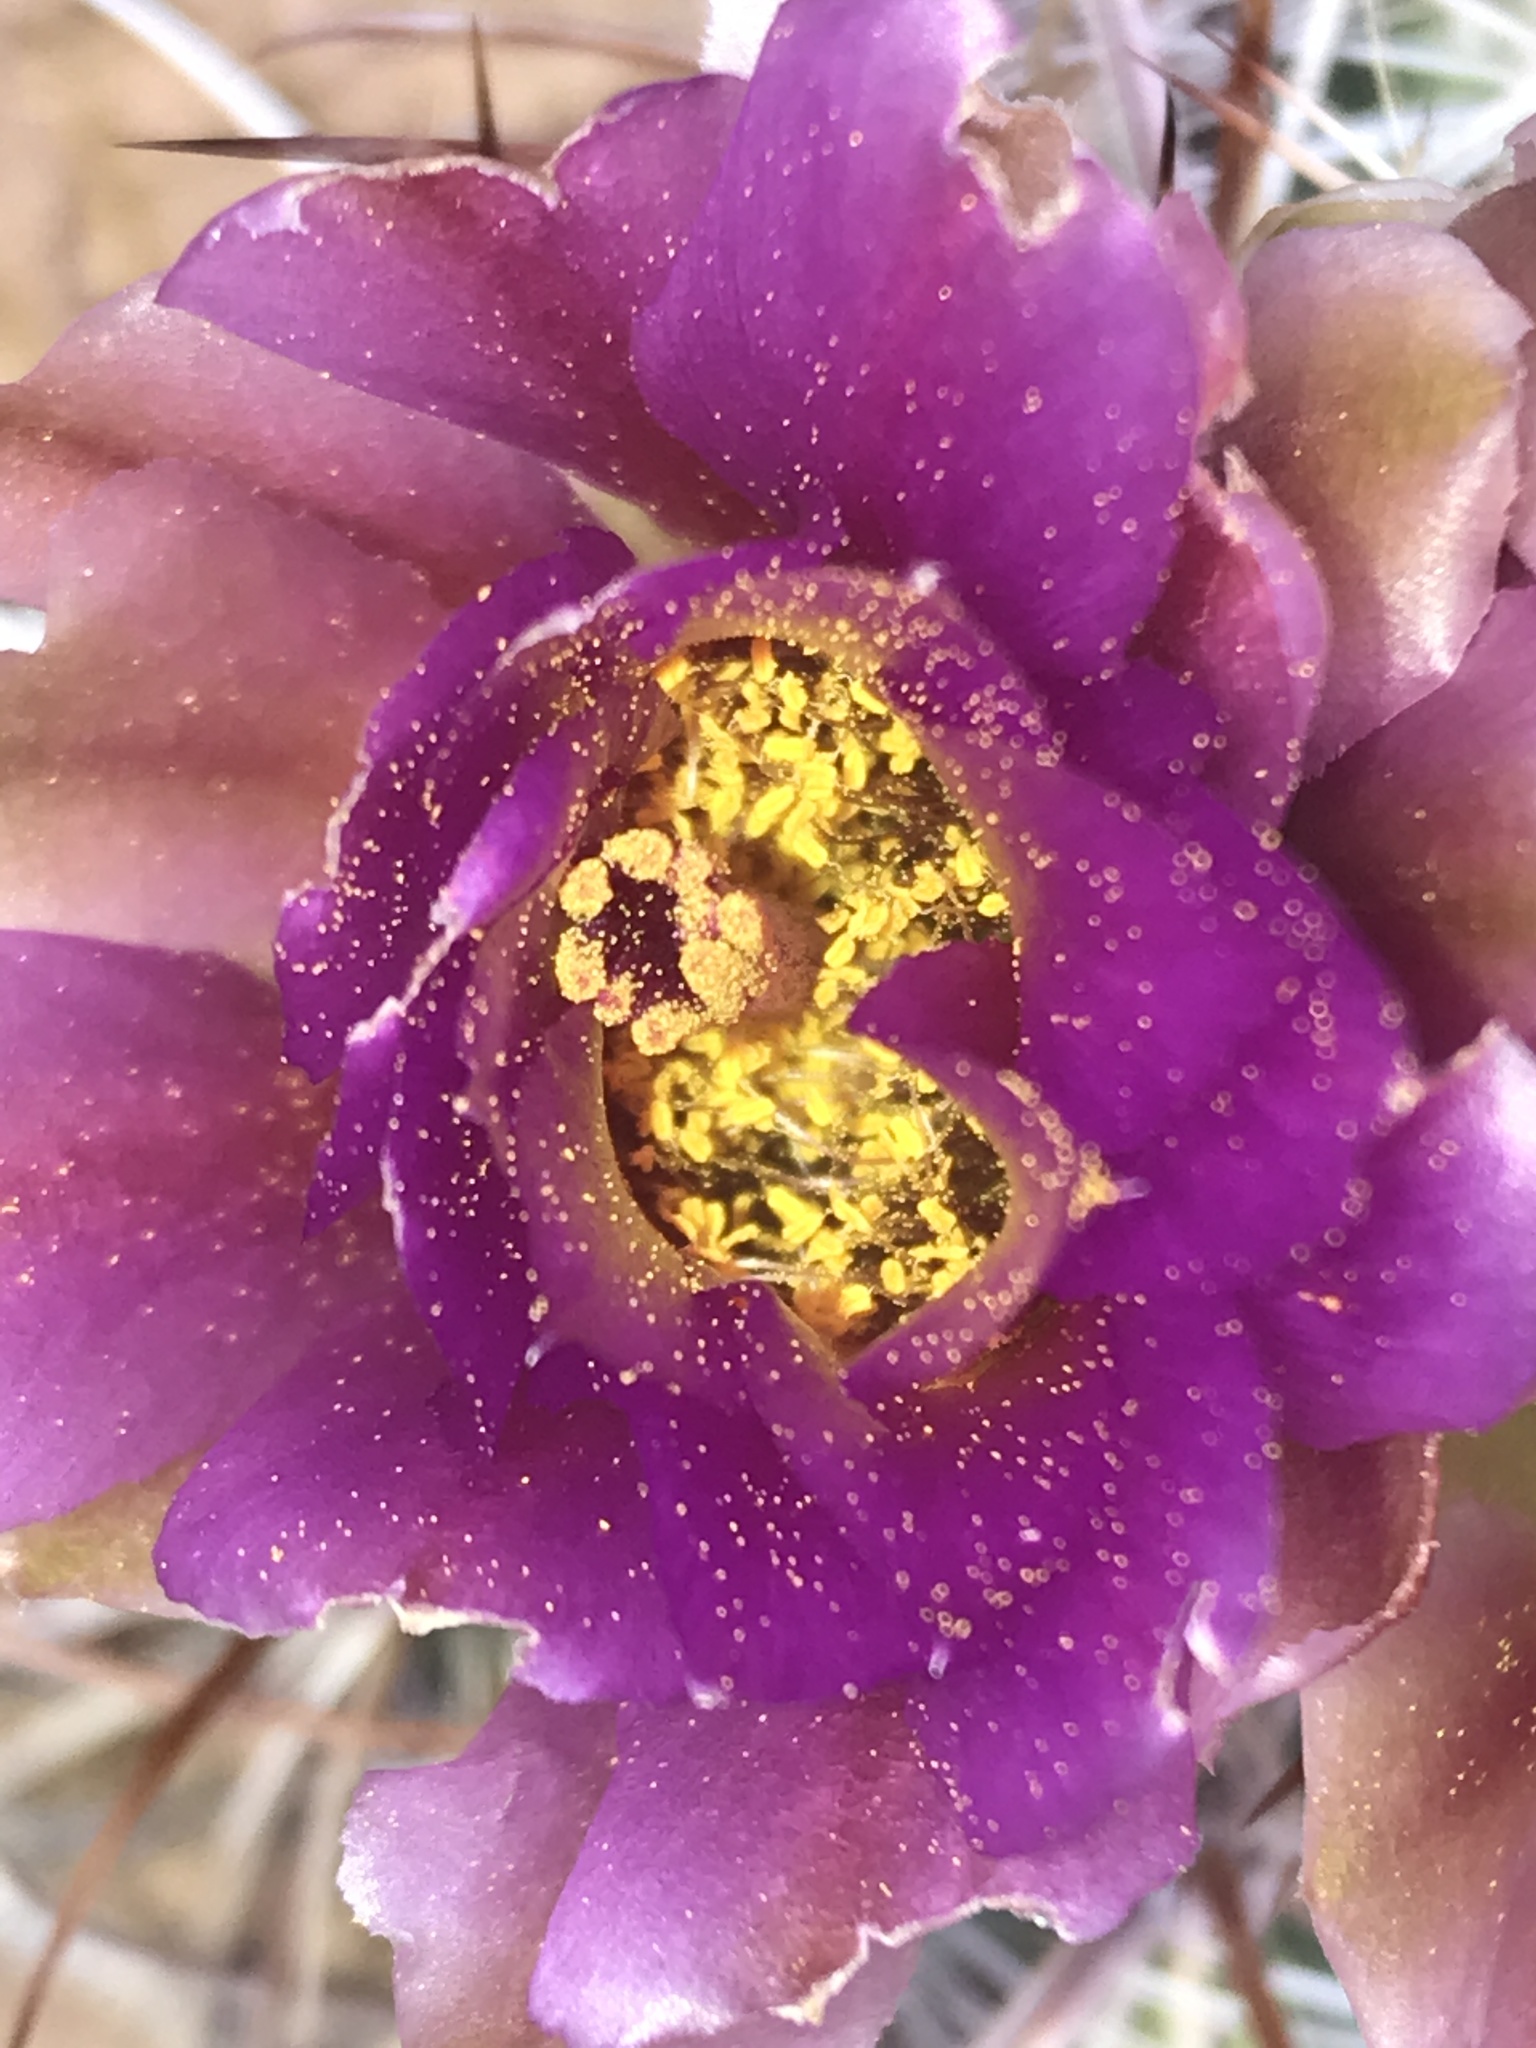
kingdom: Plantae
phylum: Tracheophyta
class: Magnoliopsida
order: Caryophyllales
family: Cactaceae
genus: Sclerocactus
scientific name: Sclerocactus parviflorus
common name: Small-flower fishhook cactus
